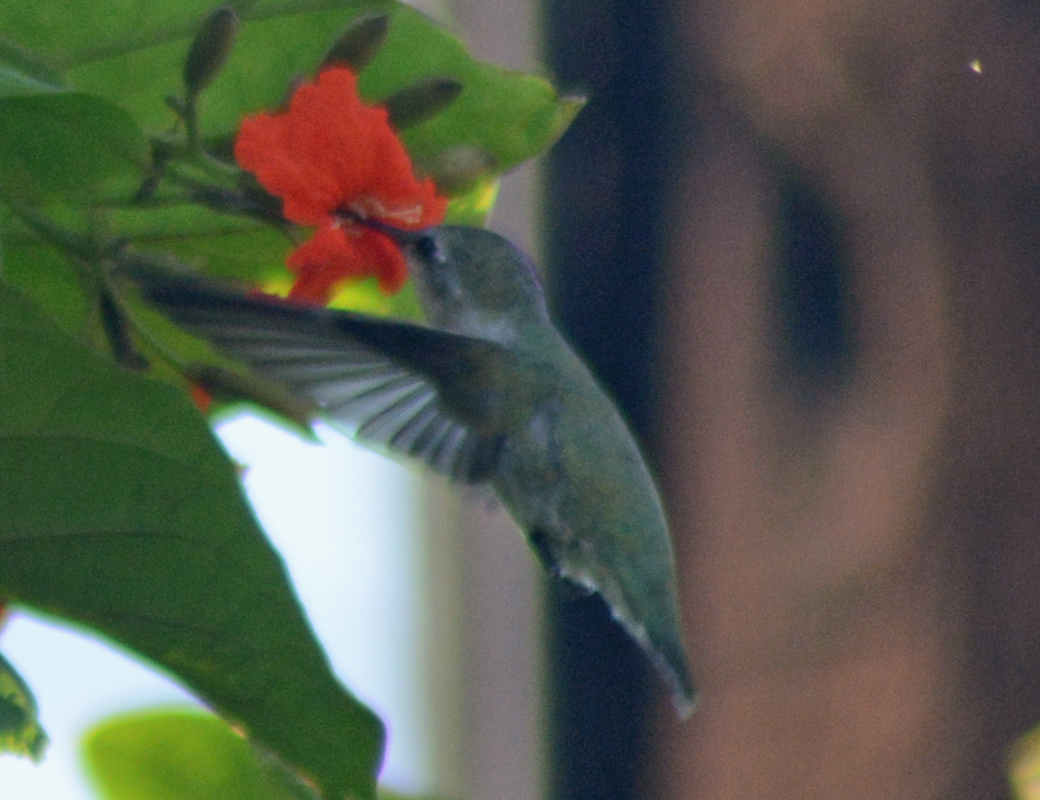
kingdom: Animalia
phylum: Chordata
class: Aves
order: Apodiformes
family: Trochilidae
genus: Calypte
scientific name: Calypte costae
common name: Costa's hummingbird
